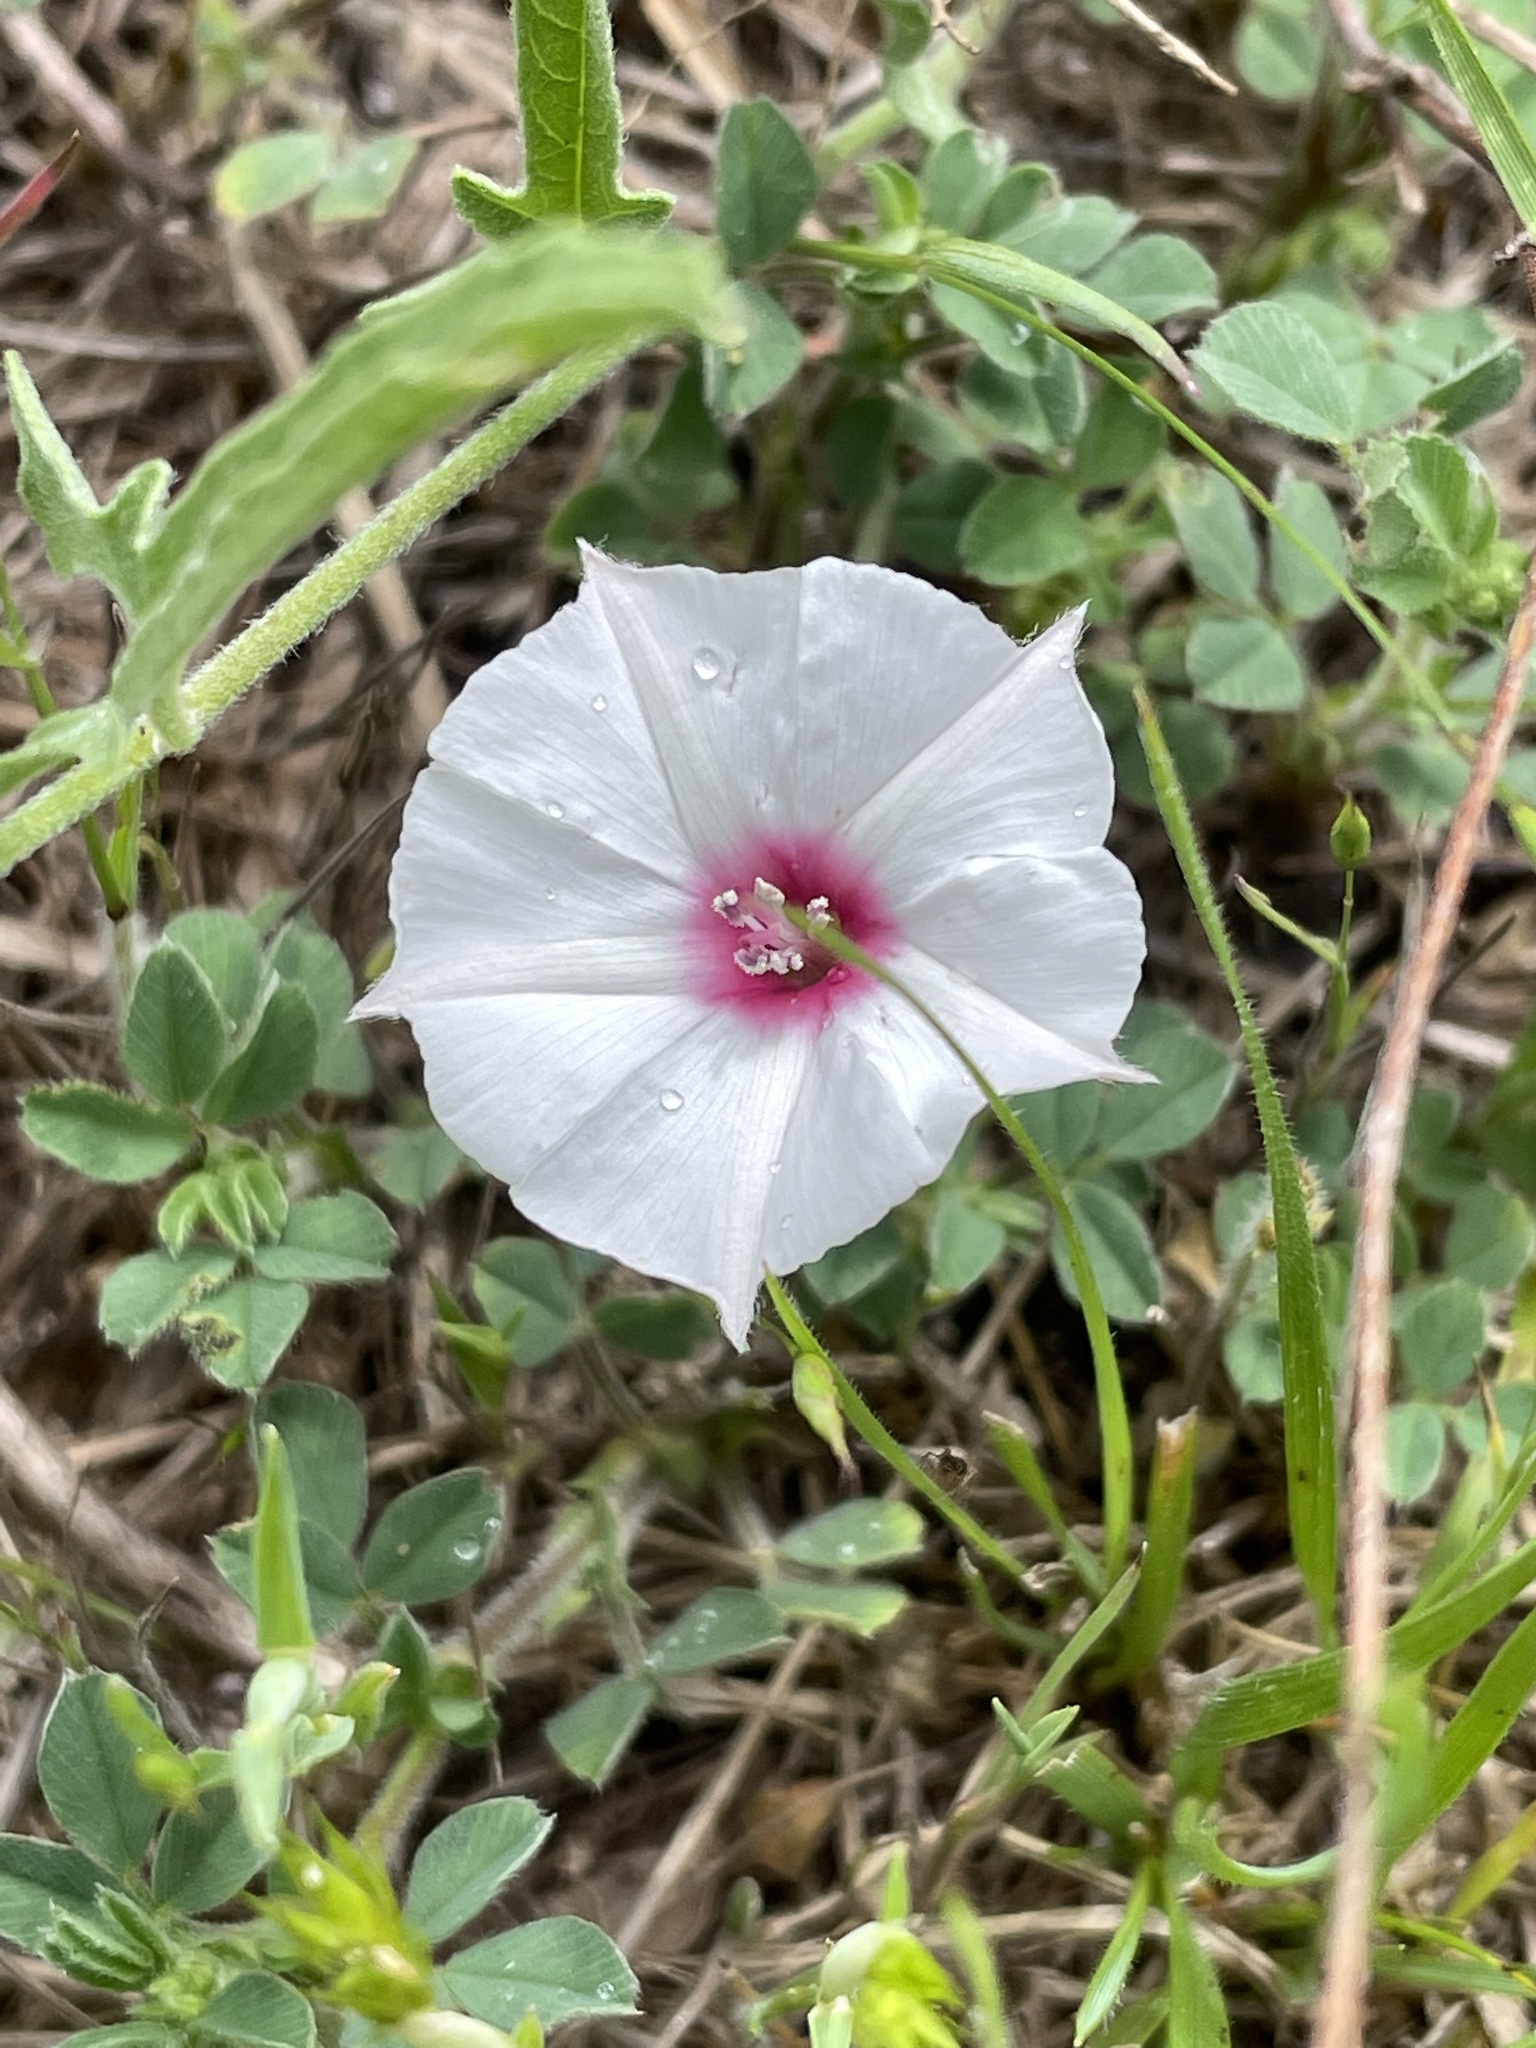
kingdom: Plantae
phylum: Tracheophyta
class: Magnoliopsida
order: Solanales
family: Convolvulaceae
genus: Convolvulus
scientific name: Convolvulus equitans
